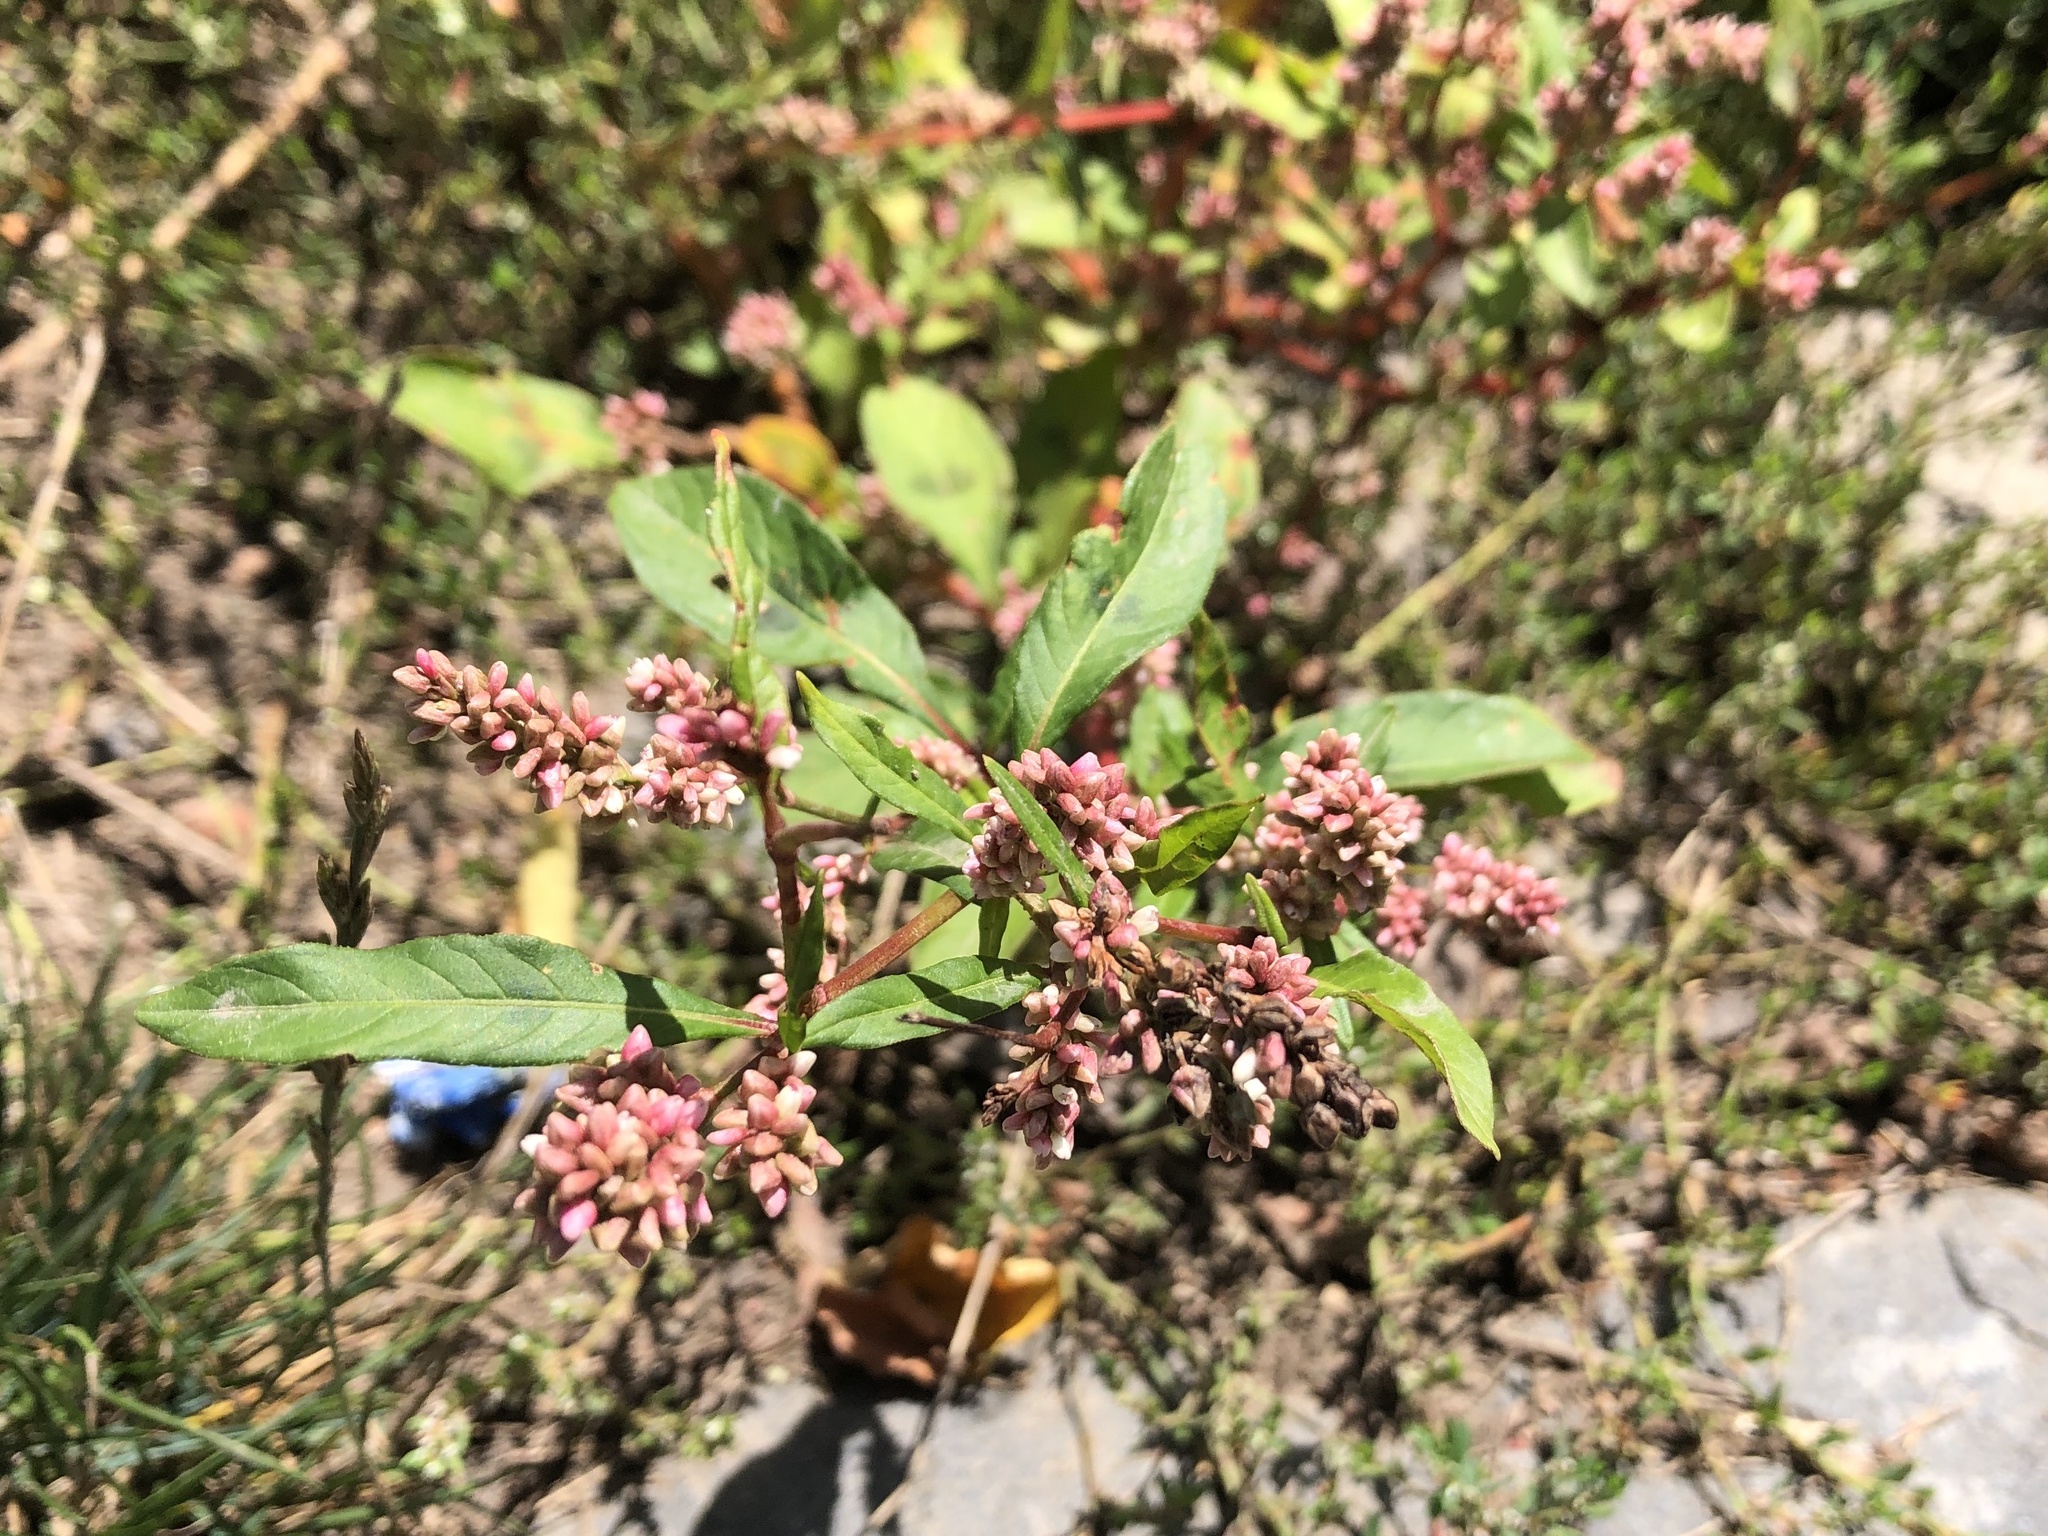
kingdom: Plantae
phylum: Tracheophyta
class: Magnoliopsida
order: Caryophyllales
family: Polygonaceae
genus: Persicaria
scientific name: Persicaria lapathifolia
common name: Curlytop knotweed
